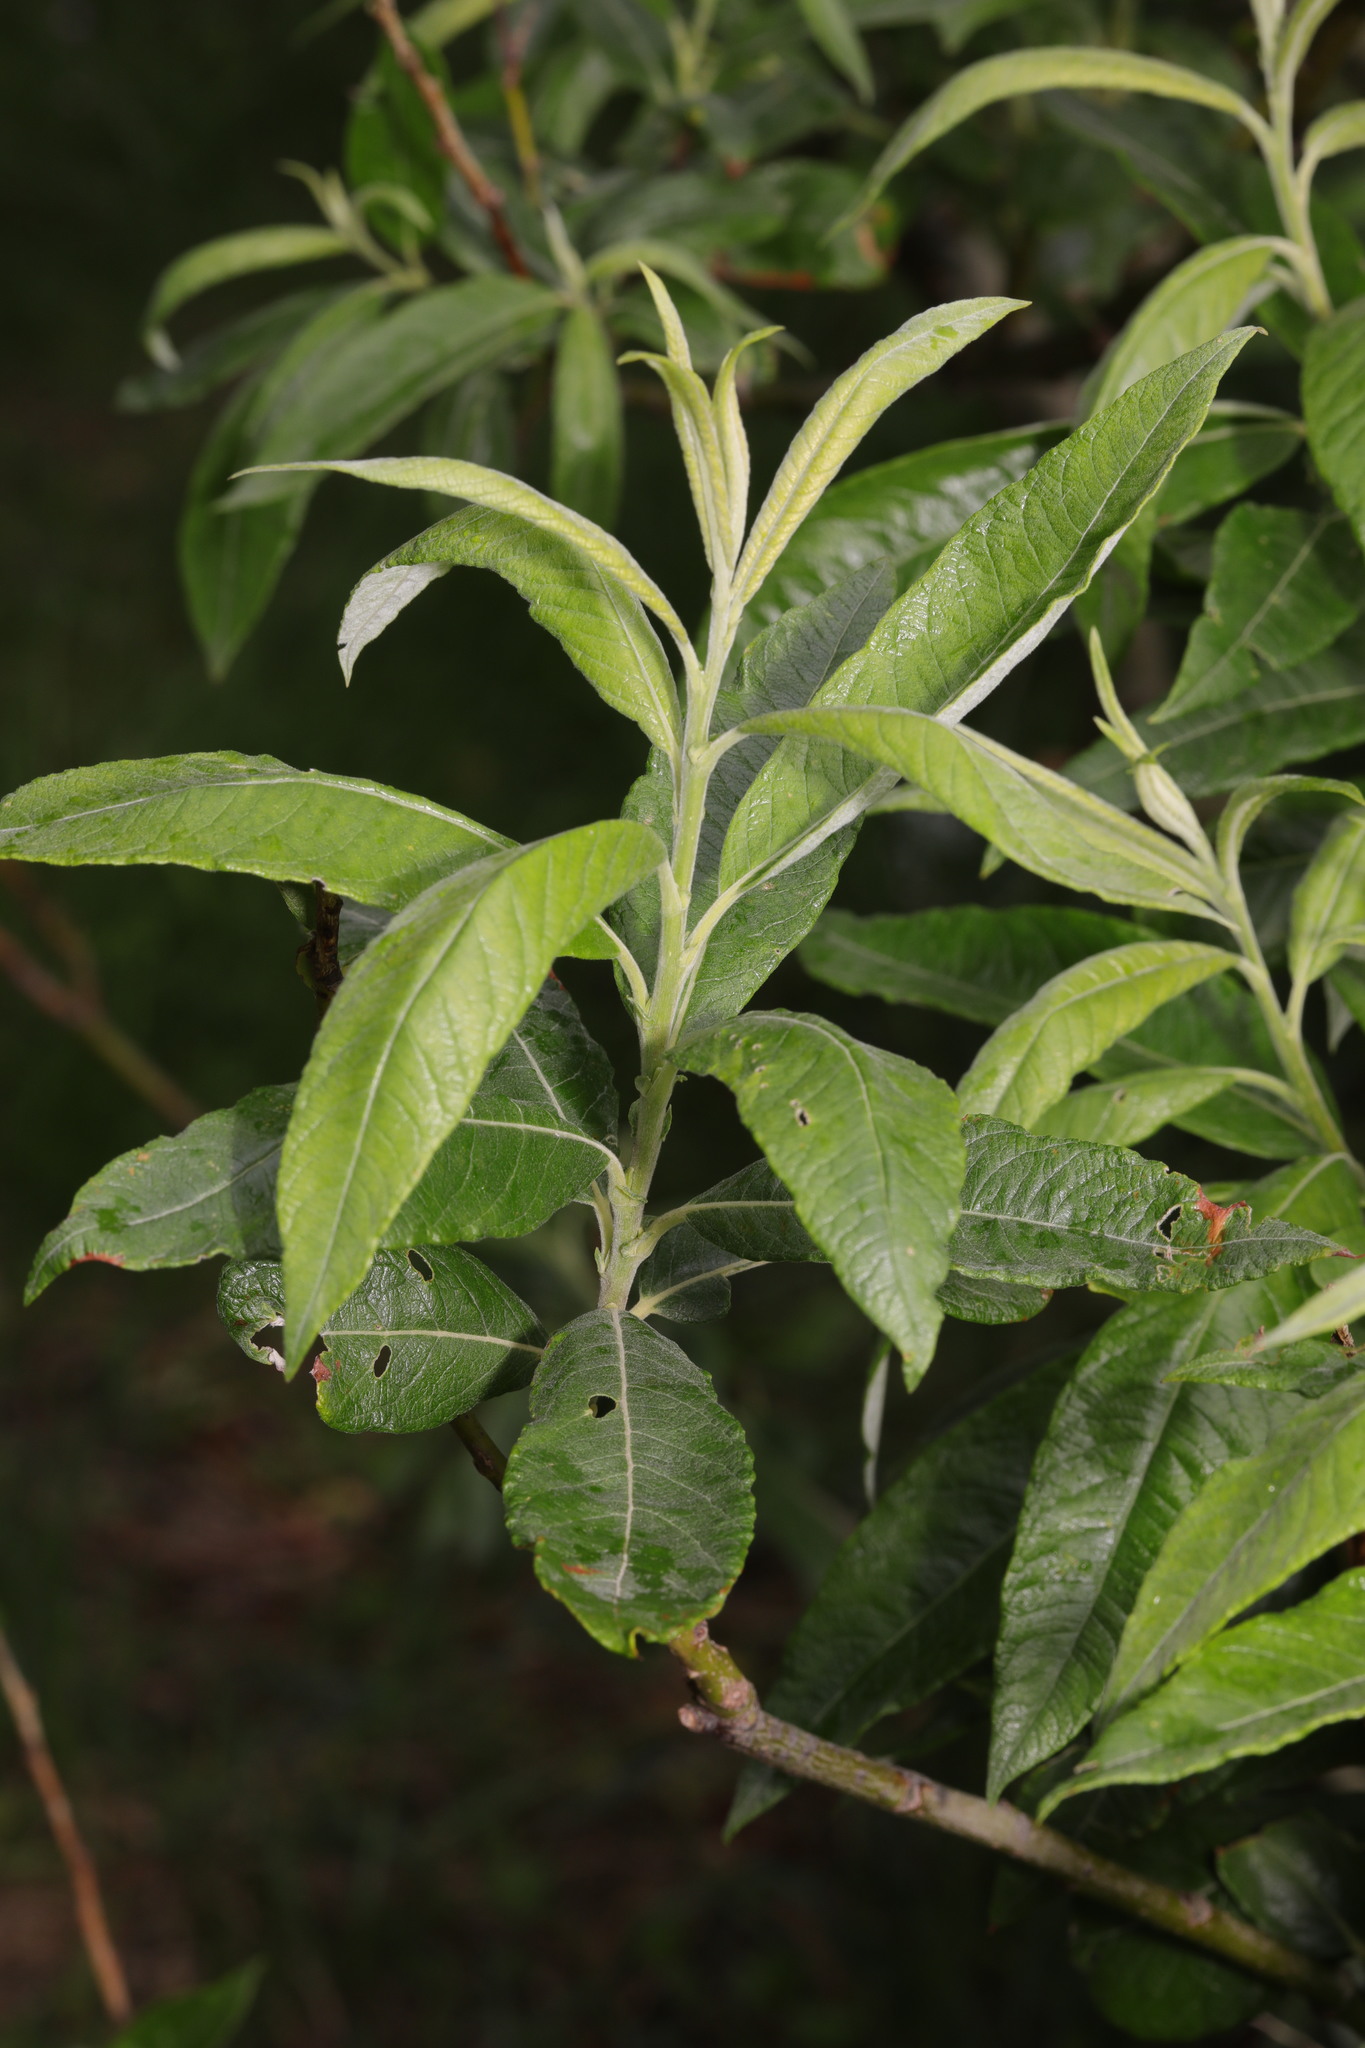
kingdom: Plantae
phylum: Tracheophyta
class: Magnoliopsida
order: Lamiales
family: Scrophulariaceae
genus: Buddleja
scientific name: Buddleja davidii
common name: Butterfly-bush
